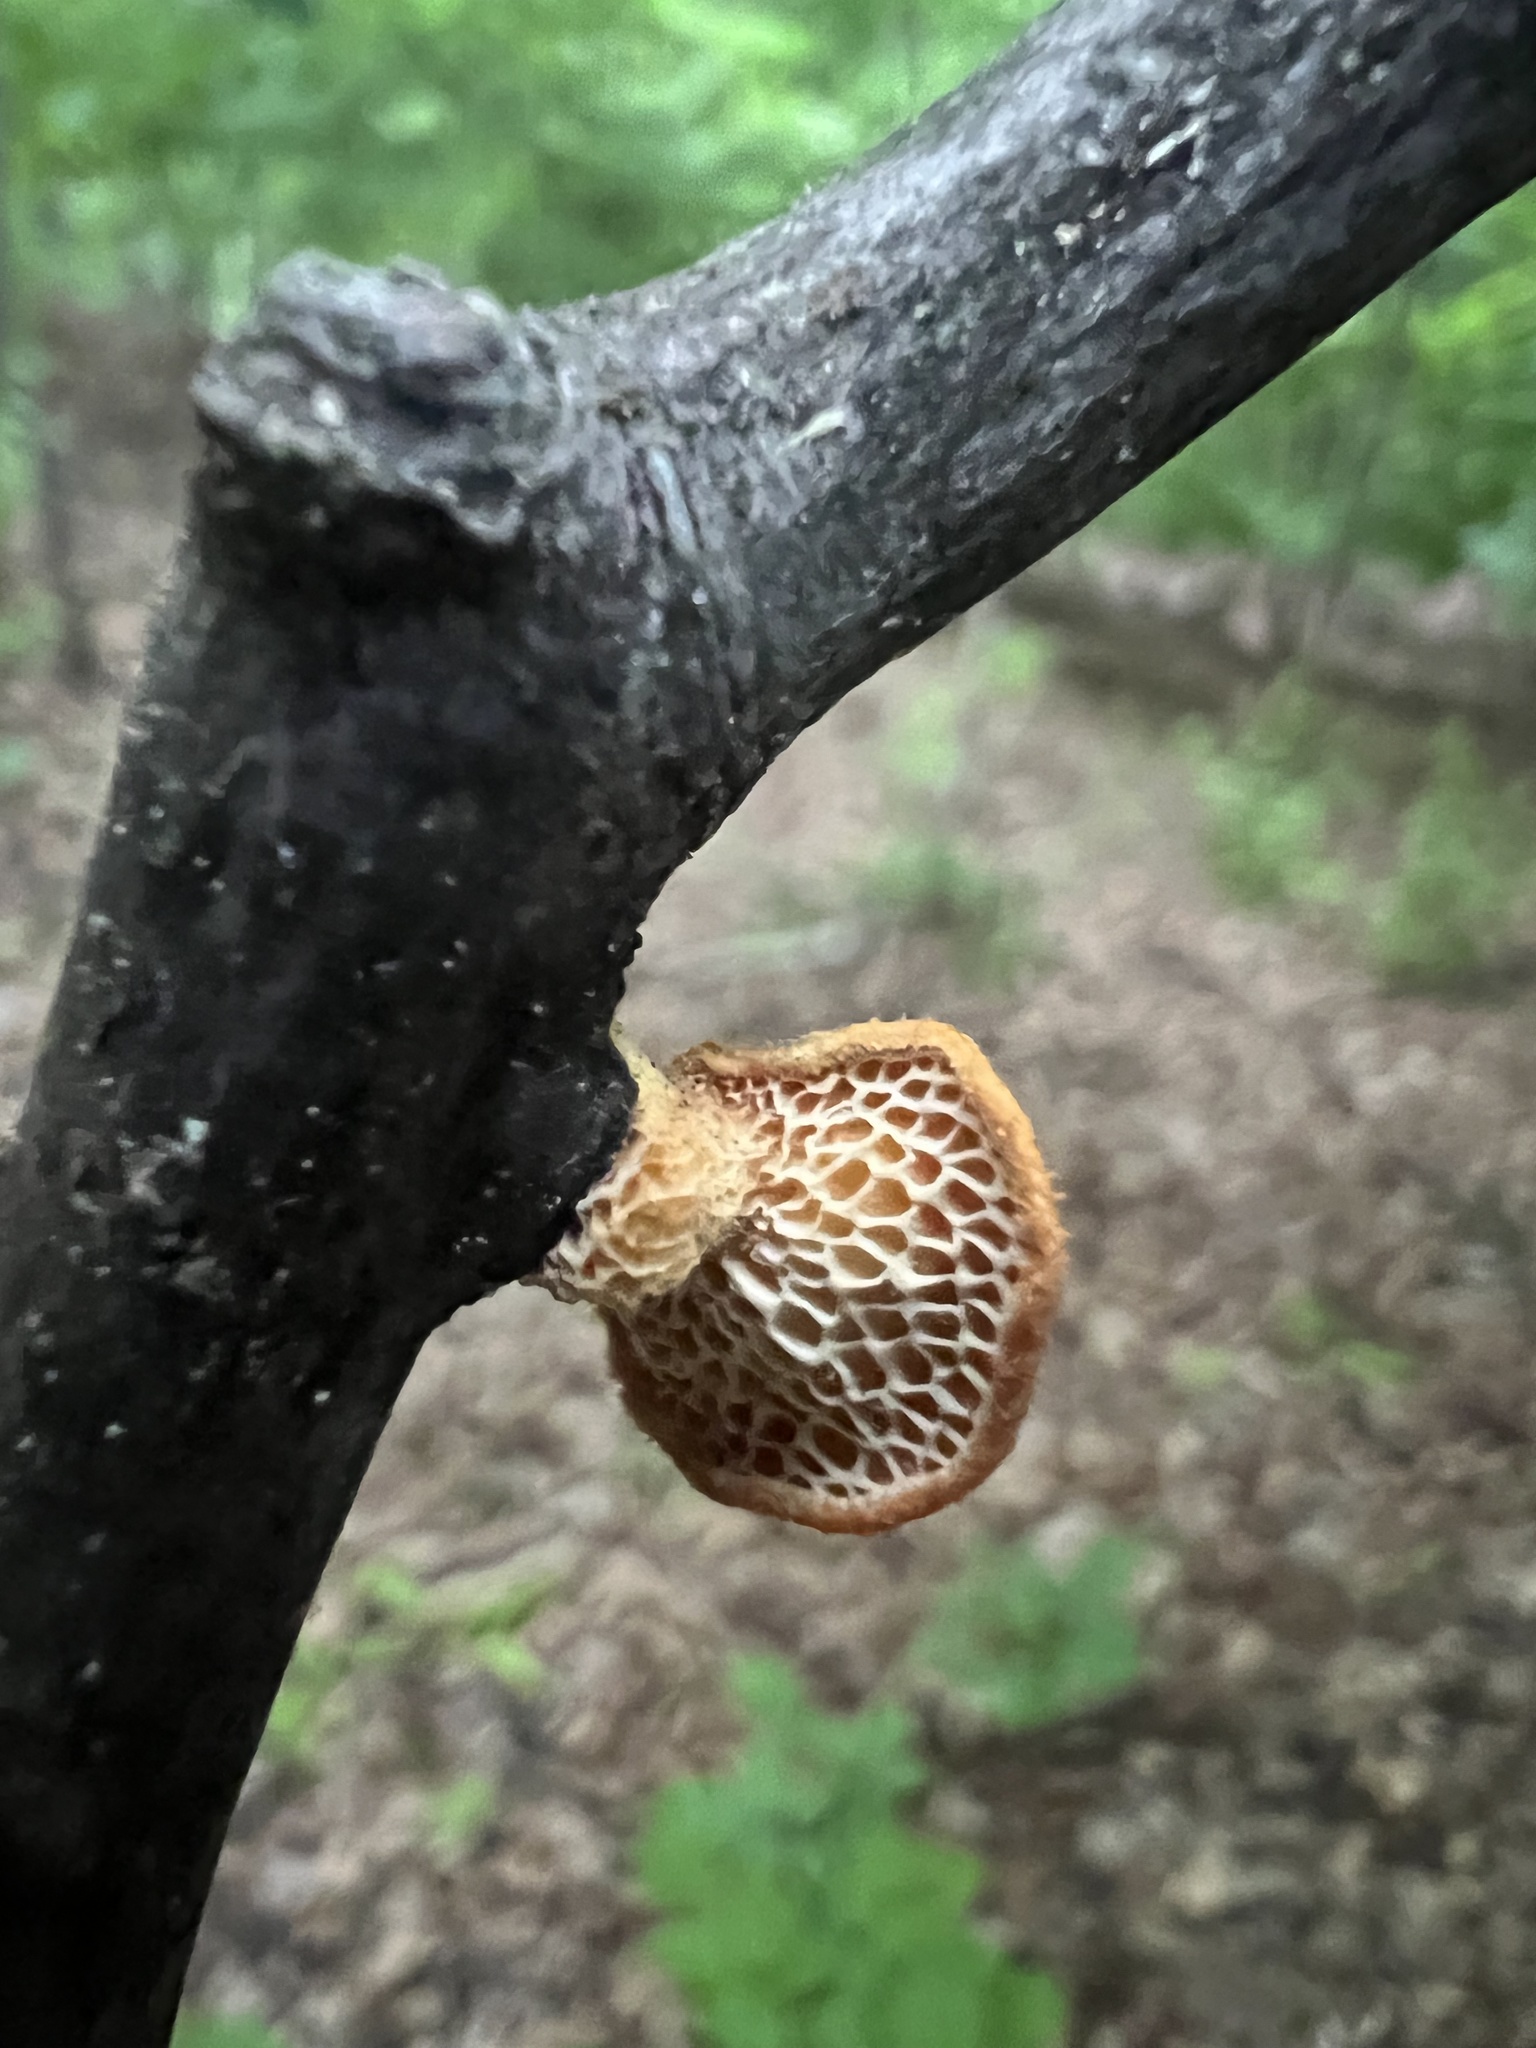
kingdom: Fungi
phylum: Basidiomycota
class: Agaricomycetes
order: Polyporales
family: Polyporaceae
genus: Neofavolus
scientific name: Neofavolus alveolaris
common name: Hexagonal-pored polypore
